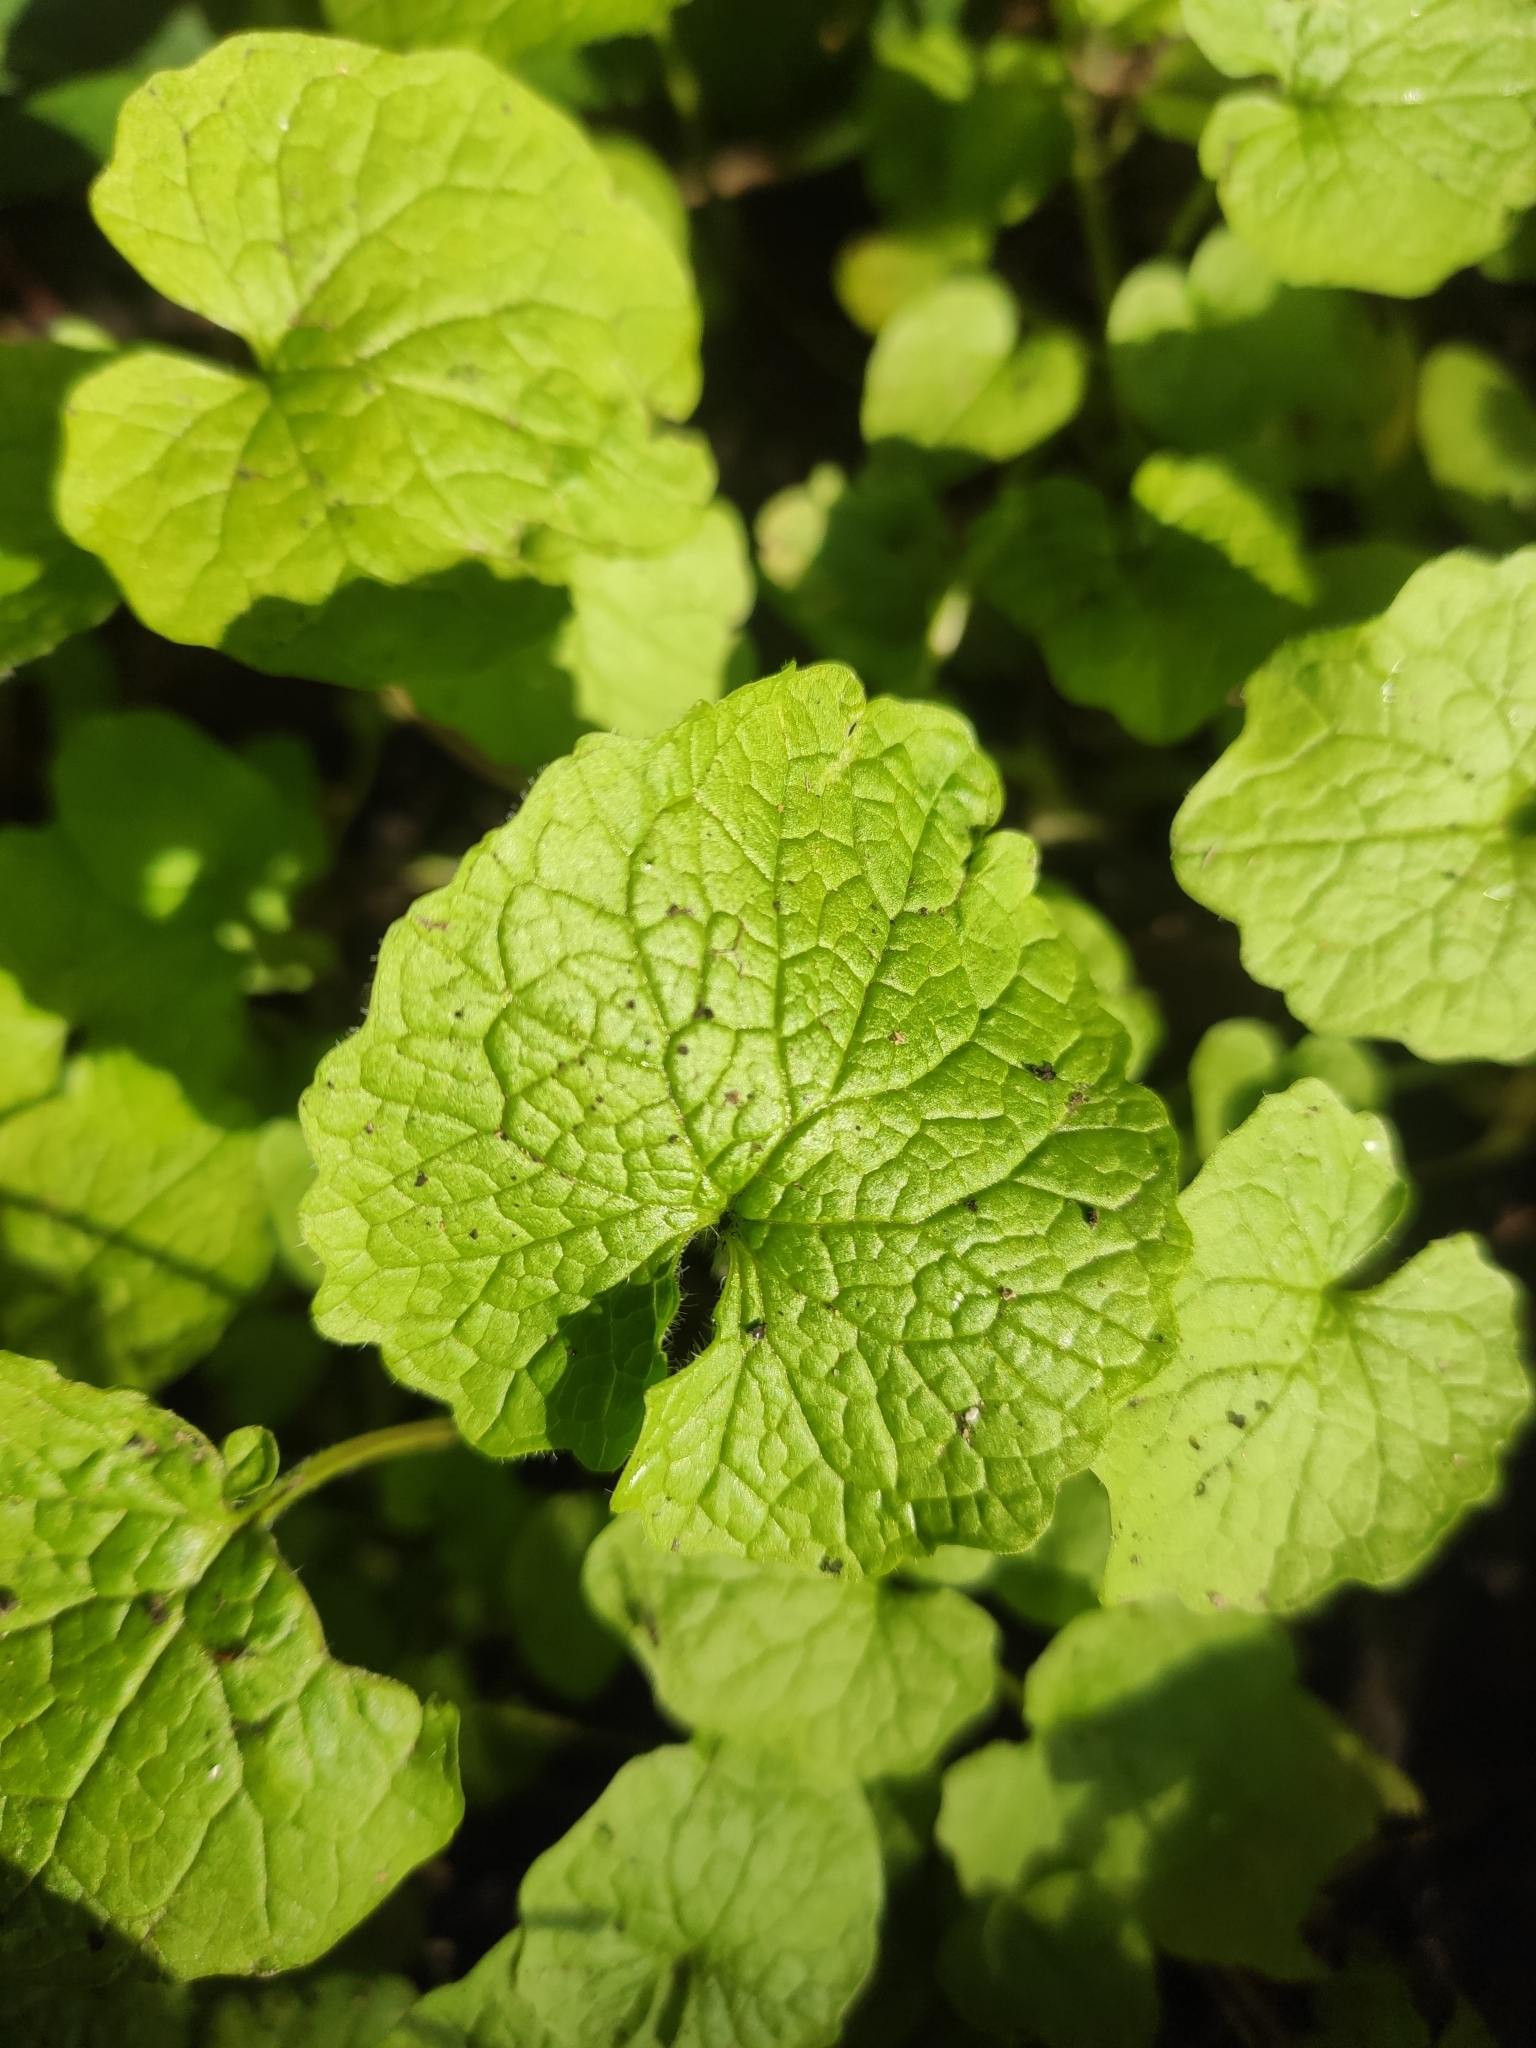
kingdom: Plantae
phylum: Tracheophyta
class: Magnoliopsida
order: Brassicales
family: Brassicaceae
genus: Alliaria
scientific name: Alliaria petiolata
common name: Garlic mustard
